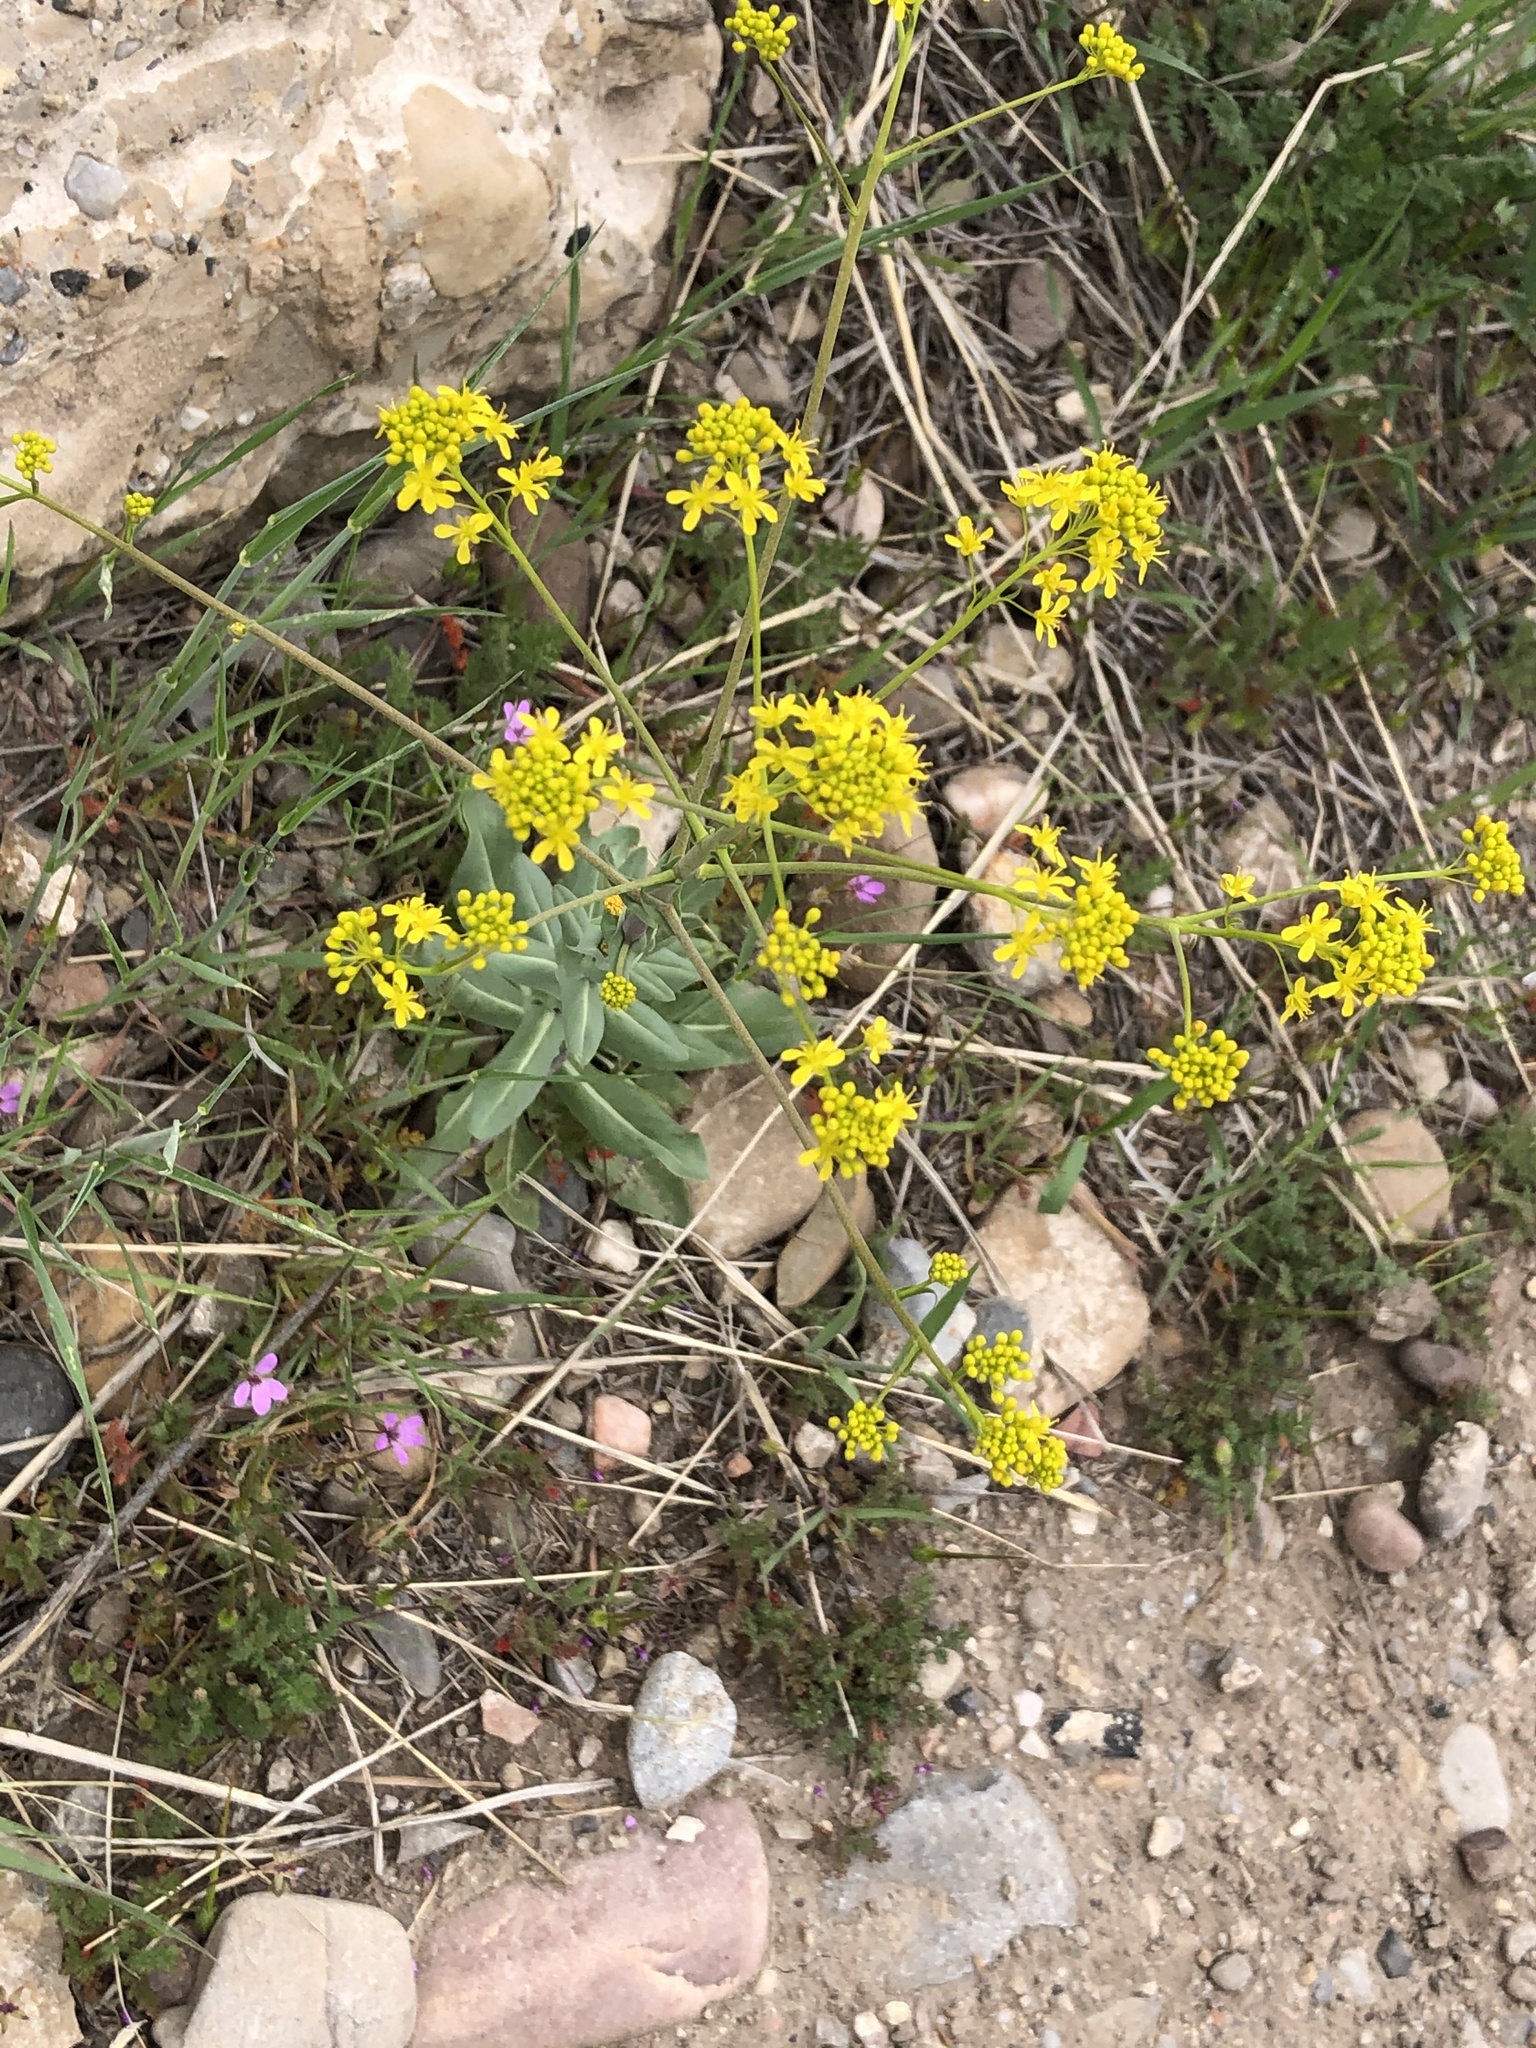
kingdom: Plantae
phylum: Tracheophyta
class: Magnoliopsida
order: Brassicales
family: Brassicaceae
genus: Isatis
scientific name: Isatis tinctoria
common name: Woad
